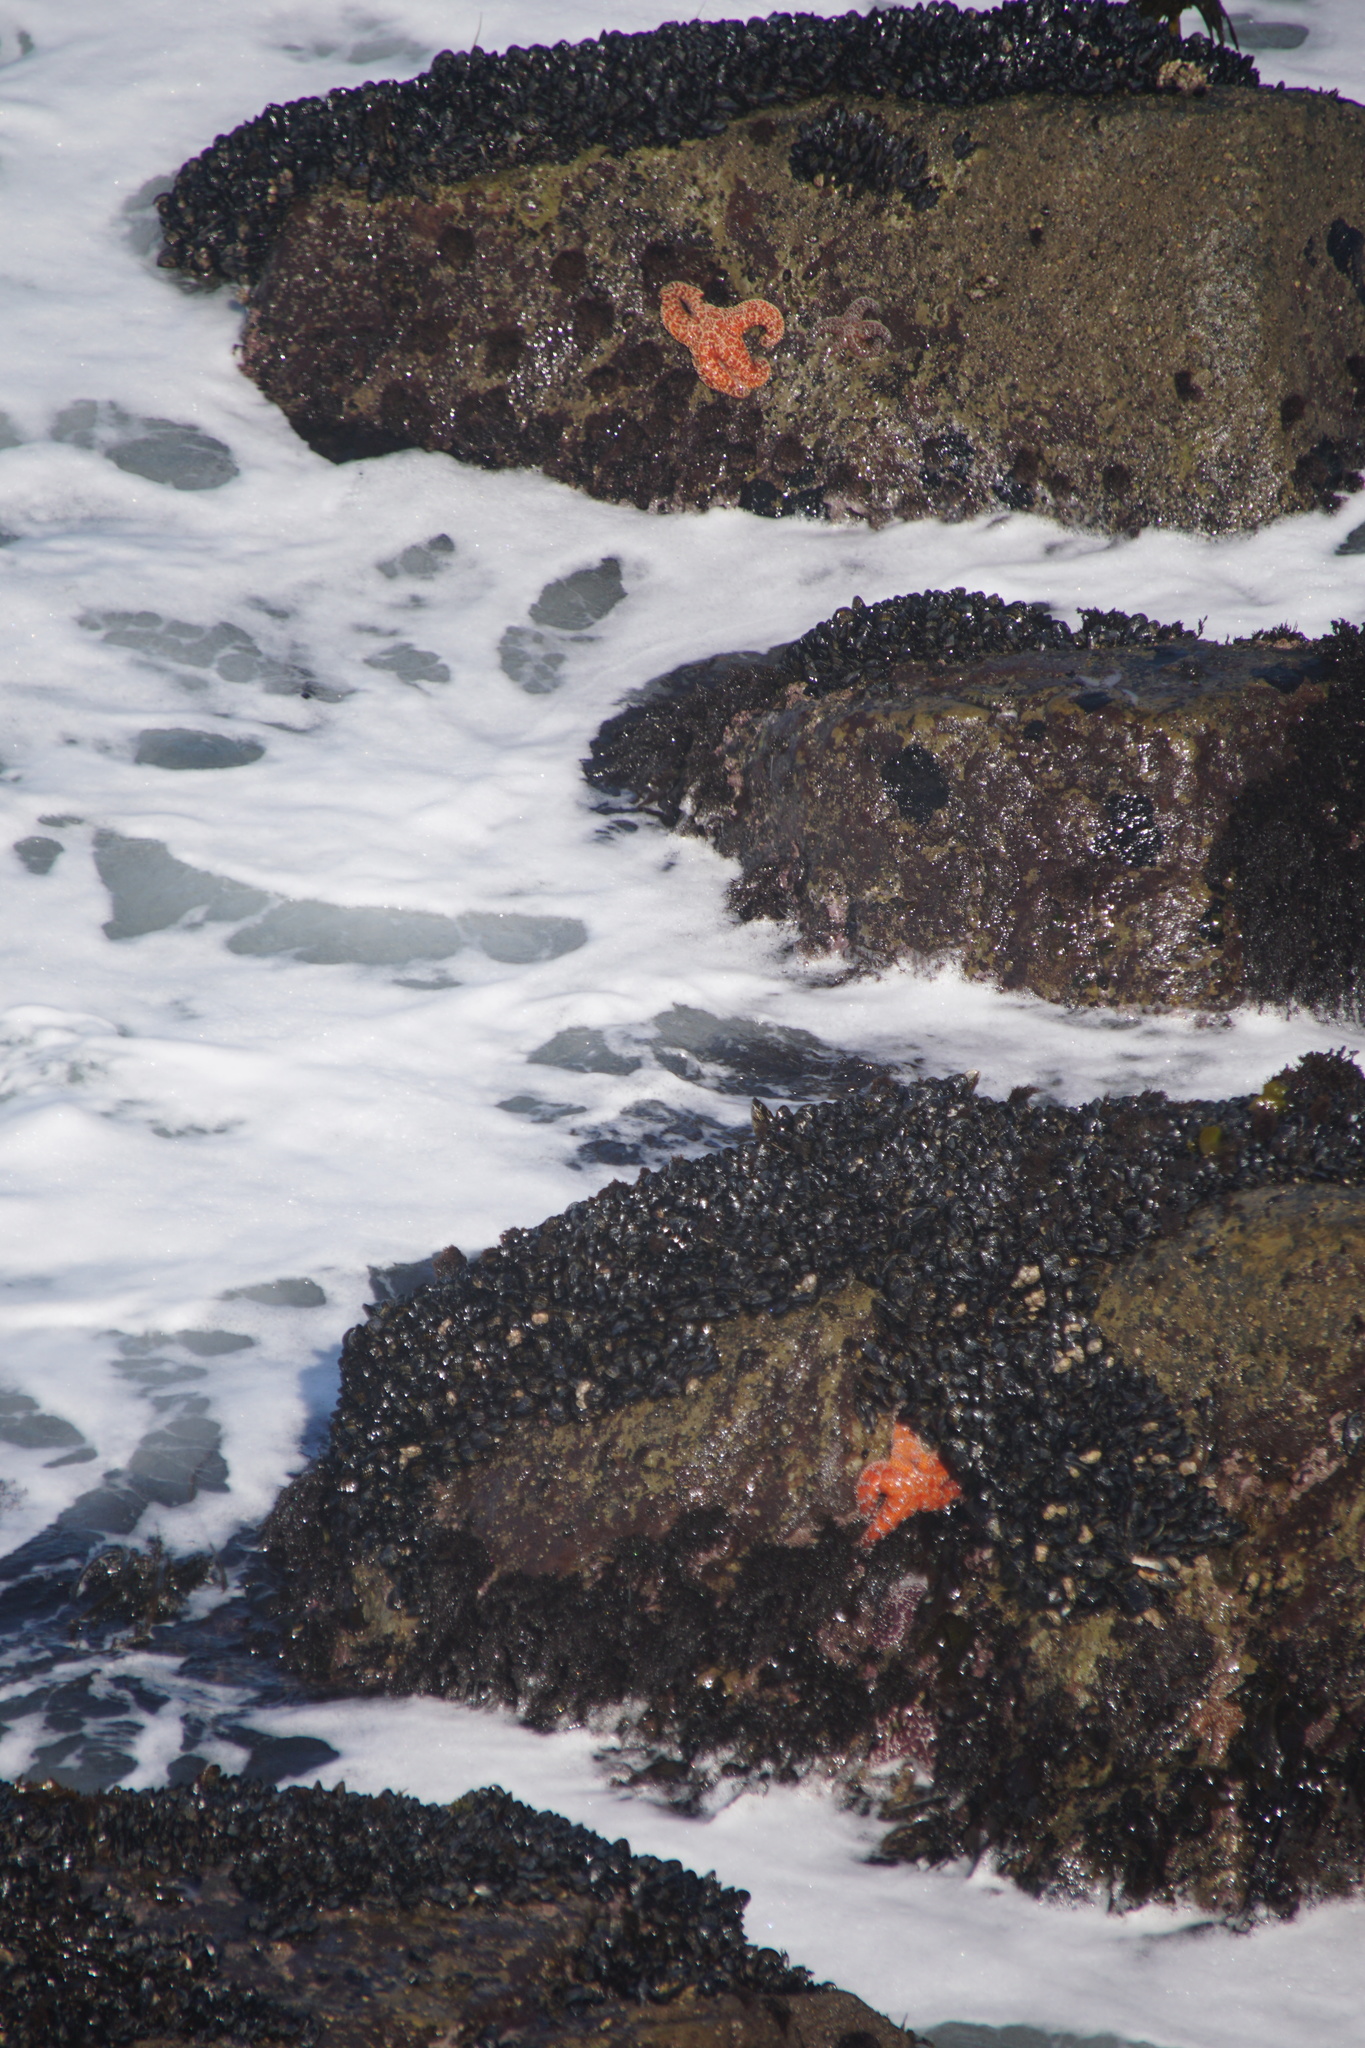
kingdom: Animalia
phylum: Echinodermata
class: Asteroidea
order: Forcipulatida
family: Asteriidae
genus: Pisaster
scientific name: Pisaster ochraceus
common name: Ochre stars
